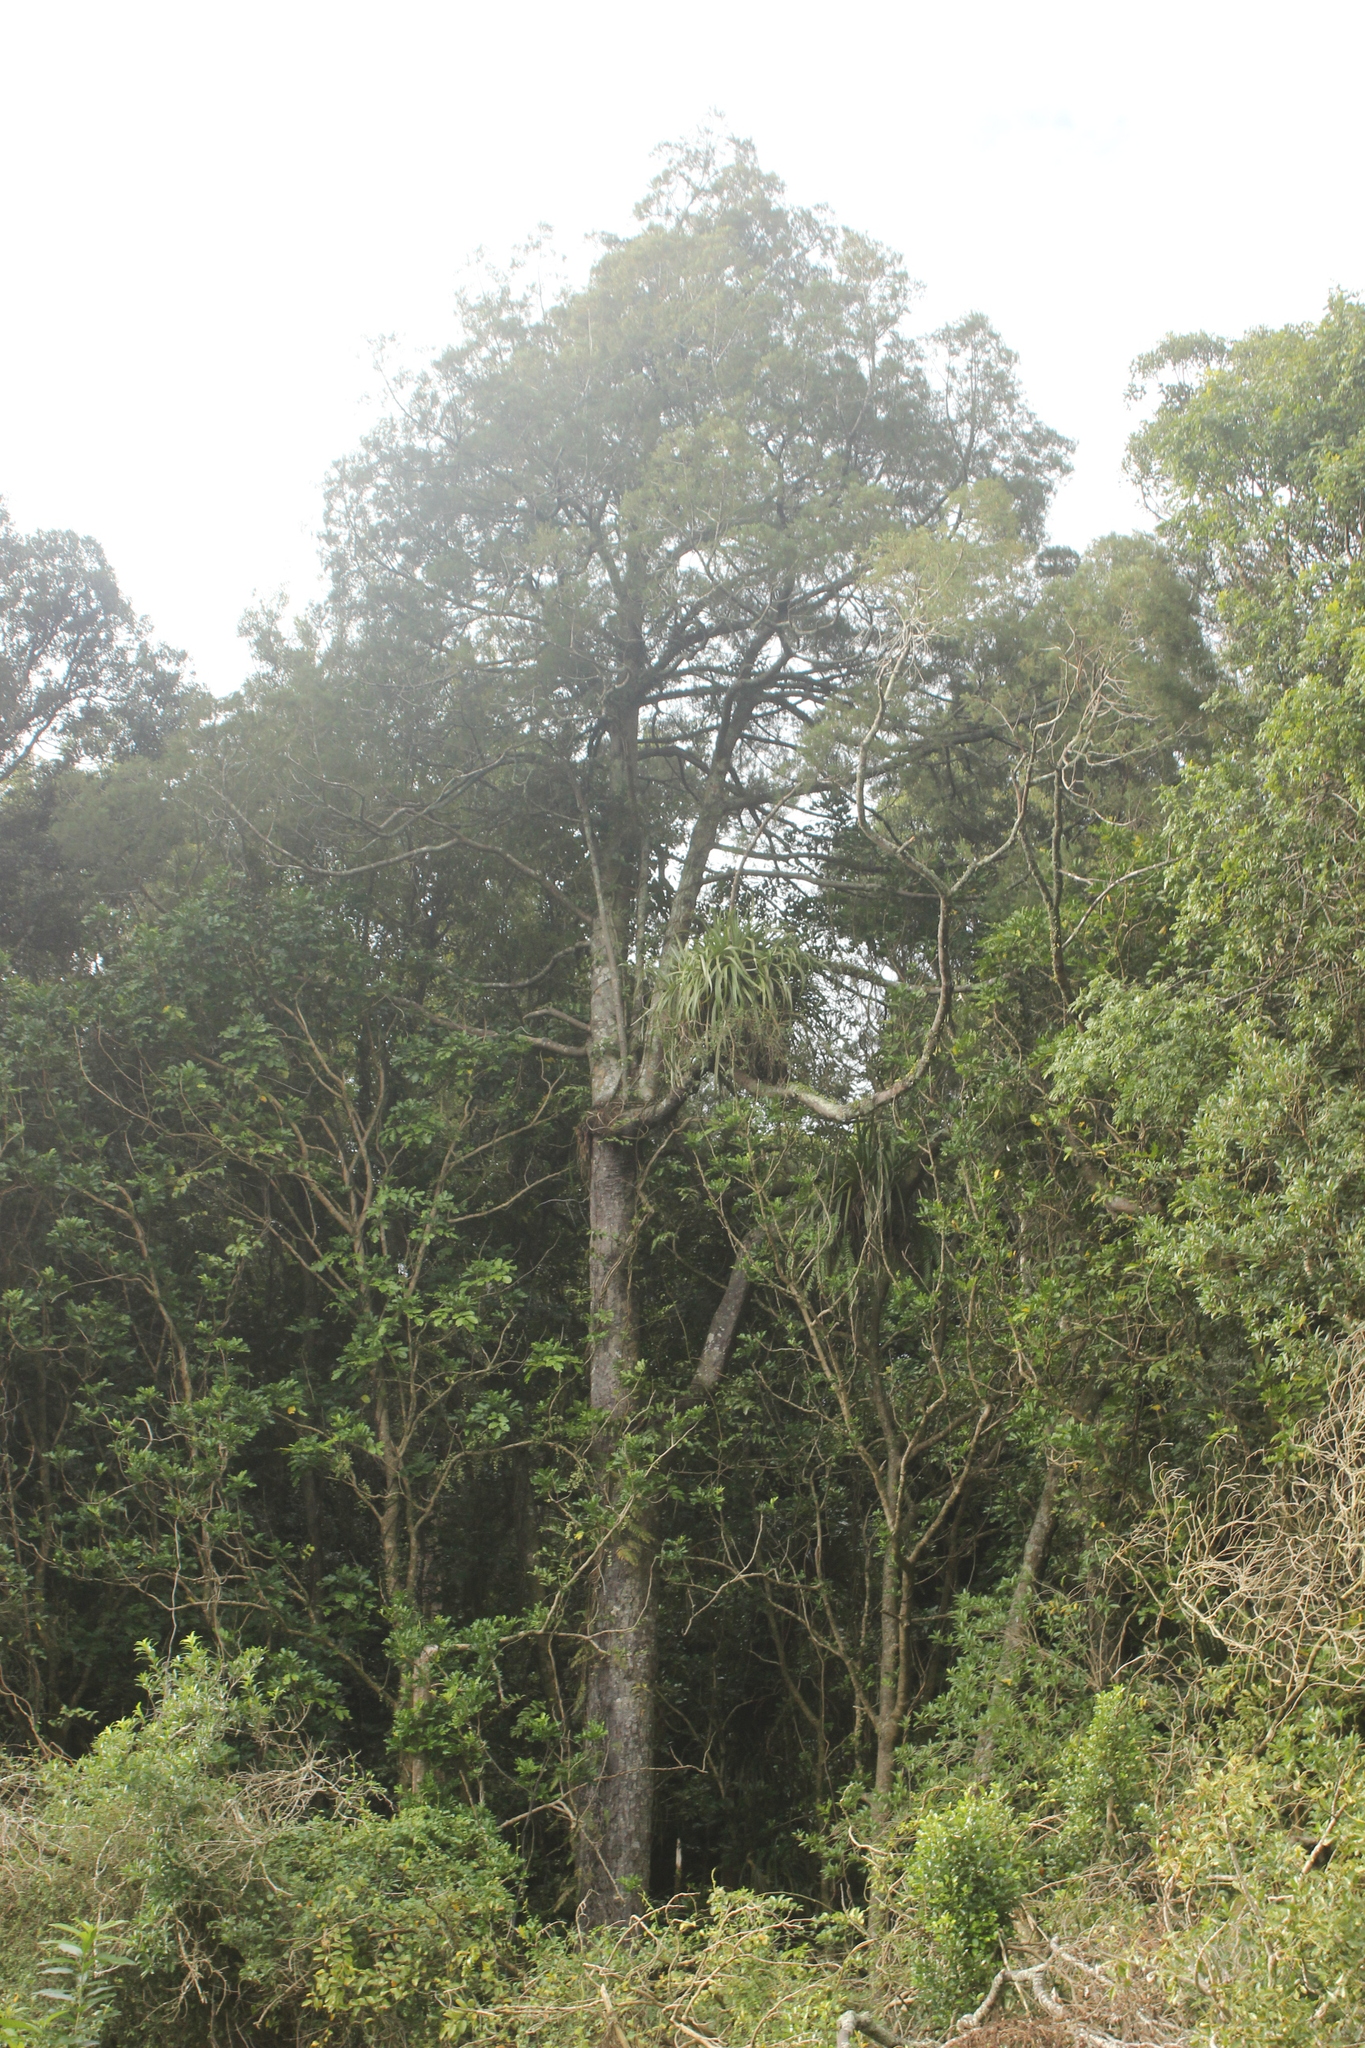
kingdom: Plantae
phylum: Tracheophyta
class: Pinopsida
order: Pinales
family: Podocarpaceae
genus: Dacrycarpus
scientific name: Dacrycarpus dacrydioides
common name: White pine
